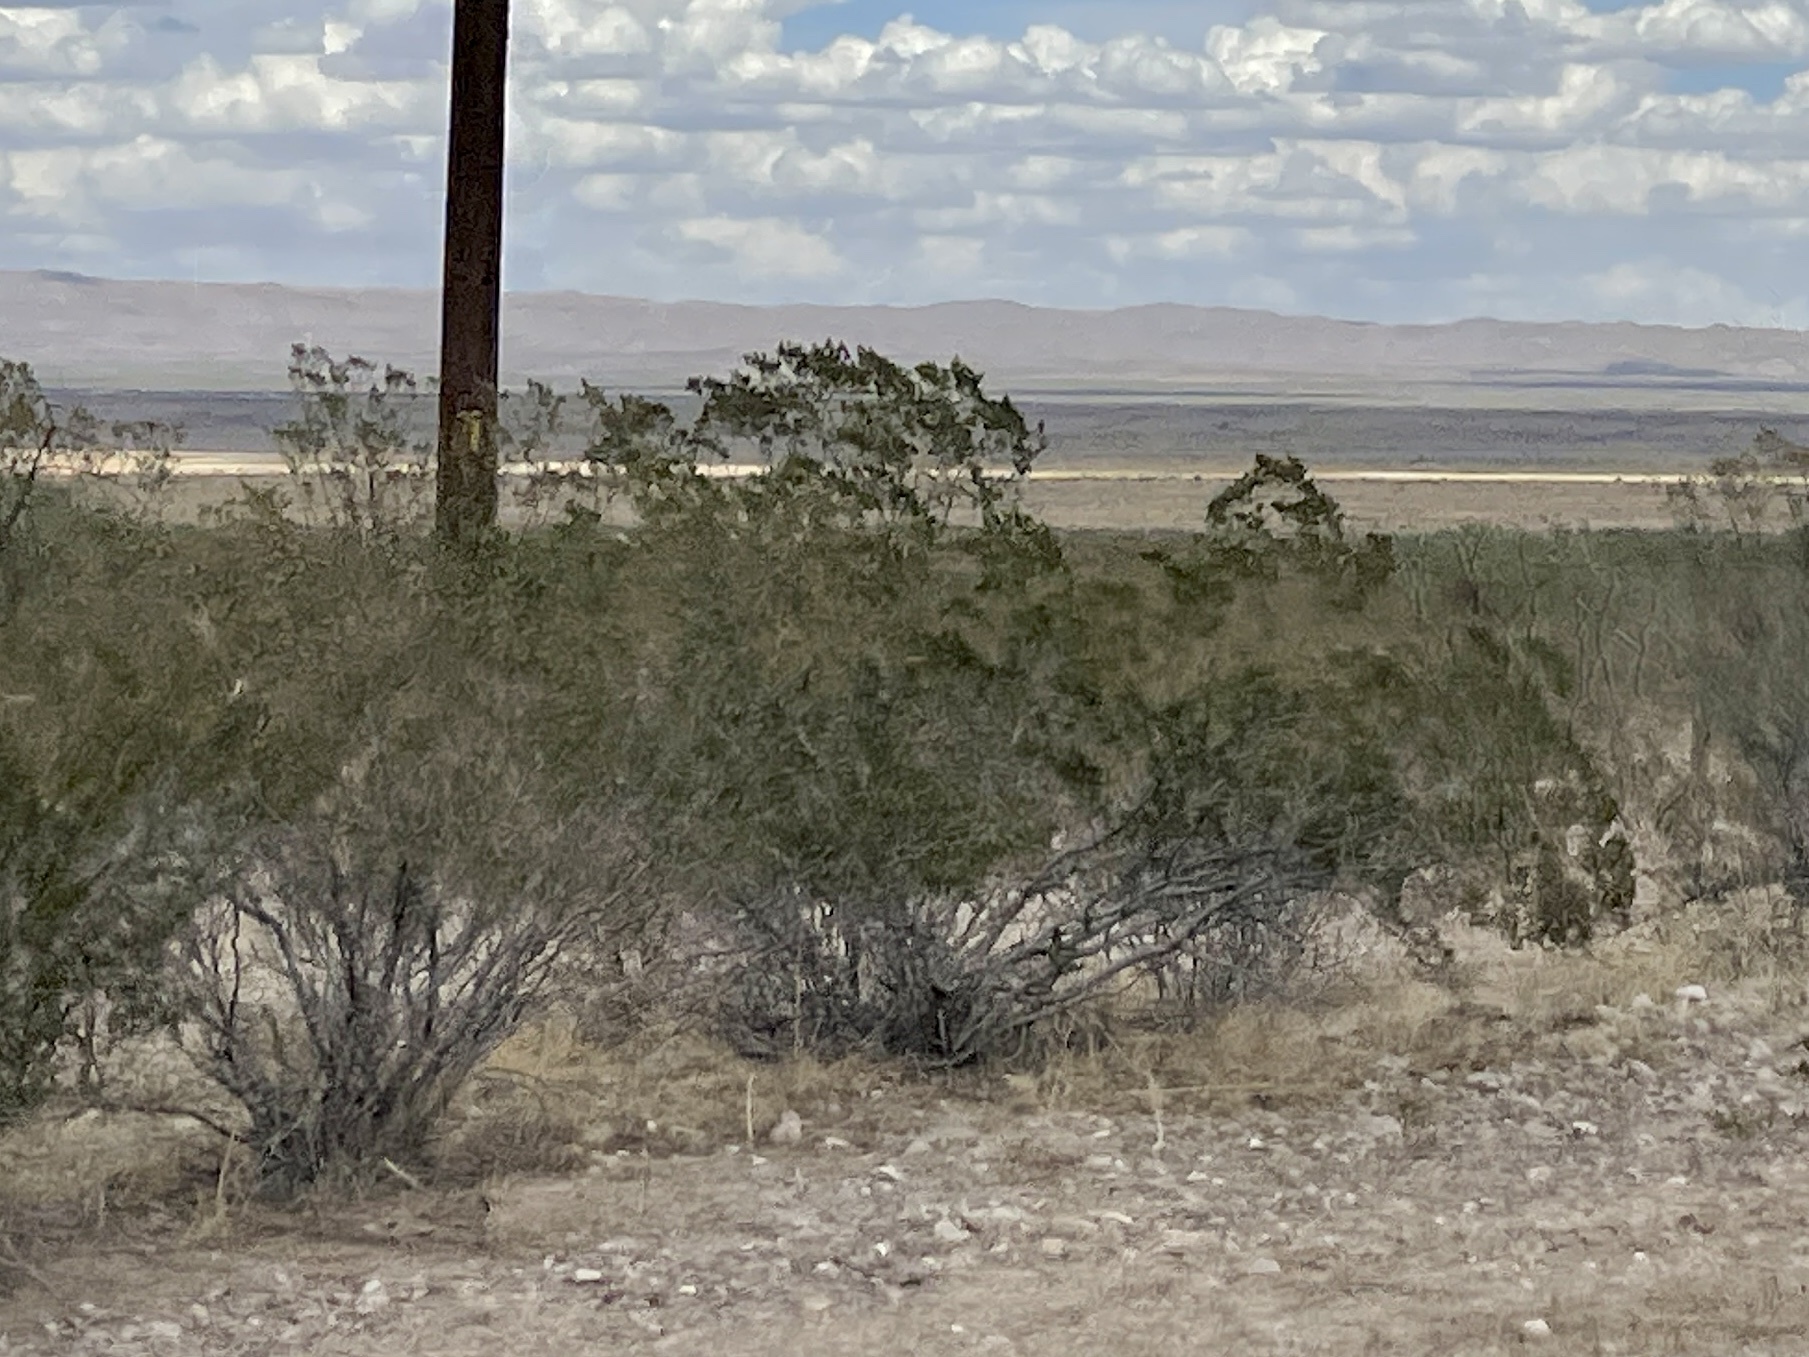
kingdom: Plantae
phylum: Tracheophyta
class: Magnoliopsida
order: Zygophyllales
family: Zygophyllaceae
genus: Larrea
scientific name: Larrea tridentata
